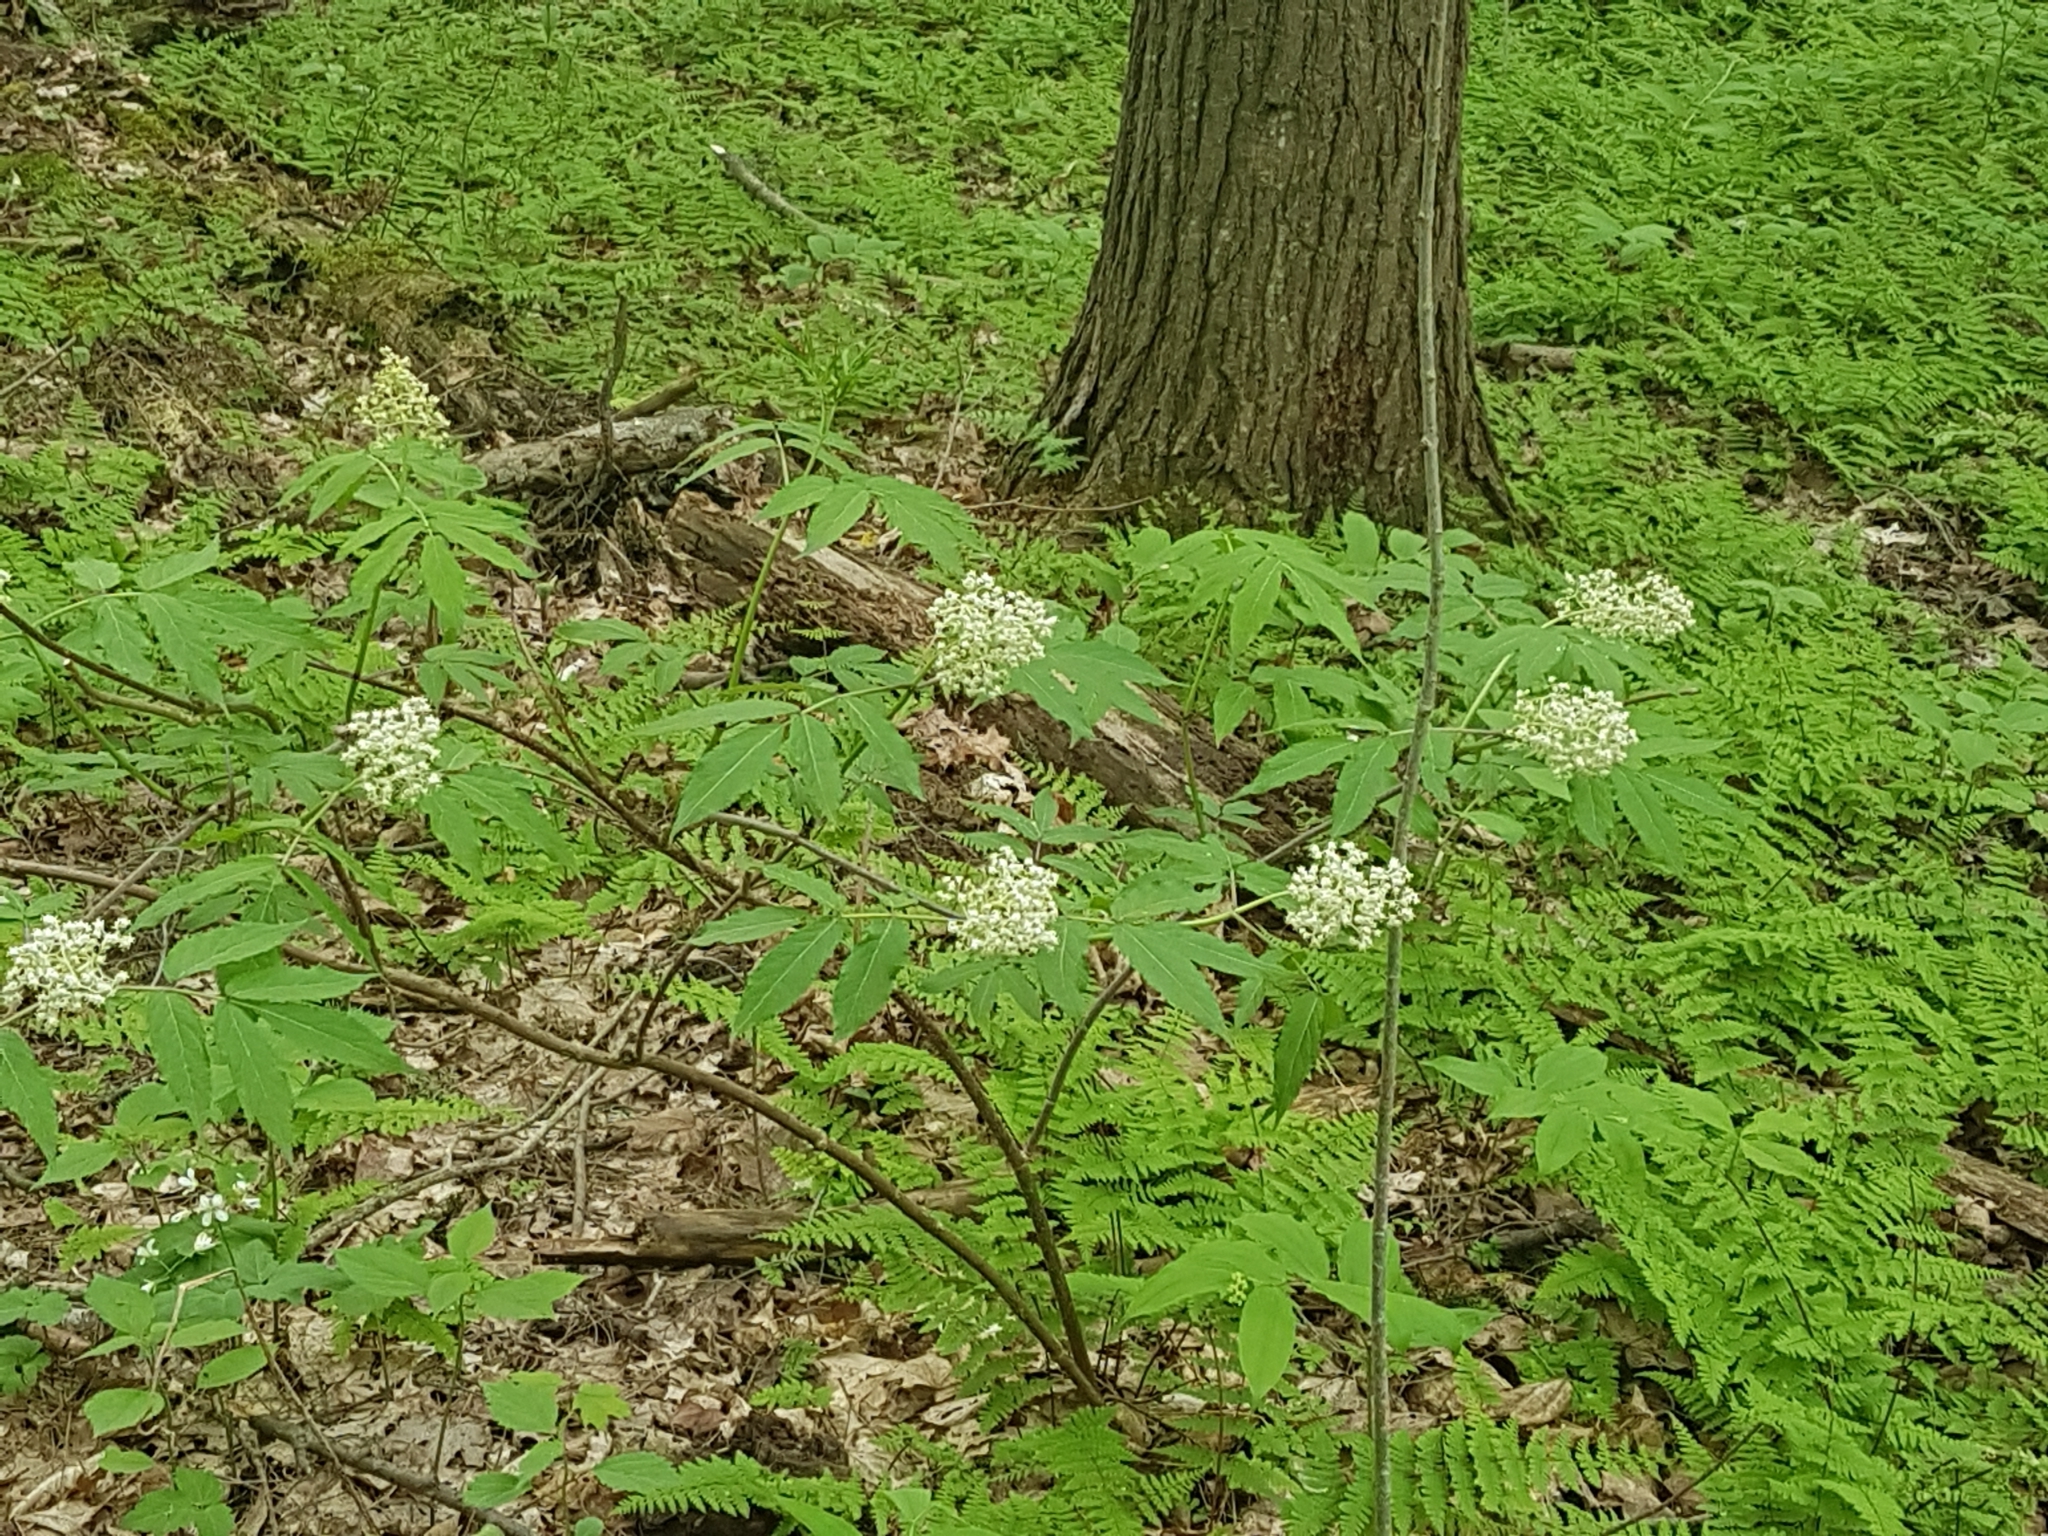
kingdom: Plantae
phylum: Tracheophyta
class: Magnoliopsida
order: Dipsacales
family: Viburnaceae
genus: Sambucus
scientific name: Sambucus racemosa
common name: Red-berried elder
